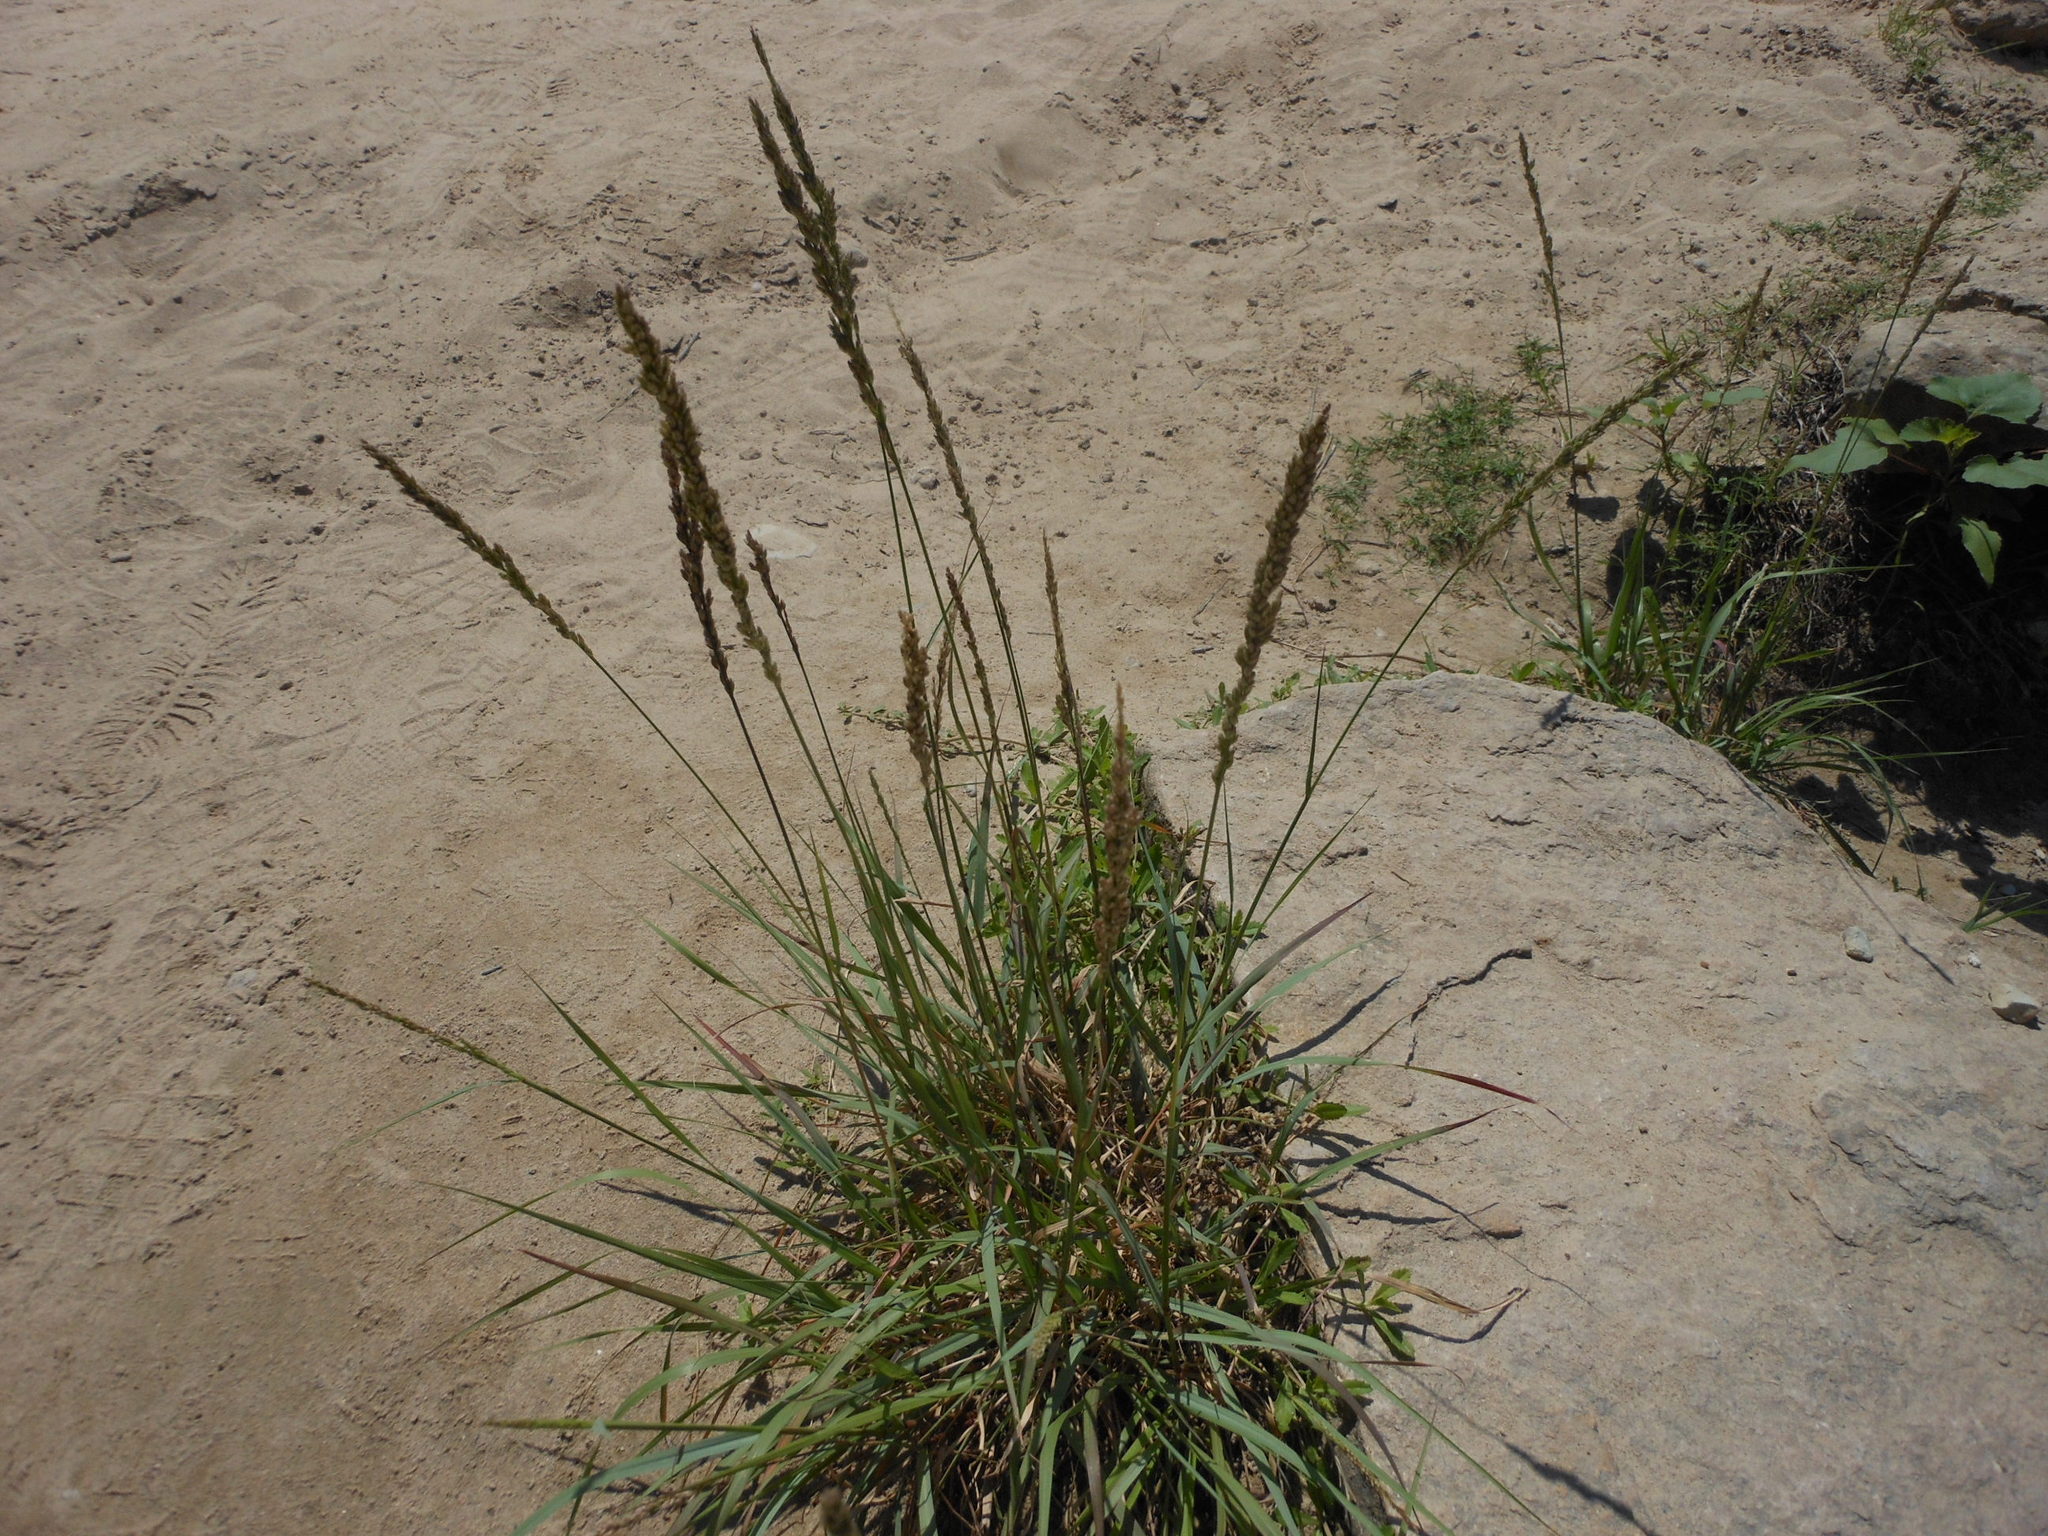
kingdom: Plantae
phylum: Tracheophyta
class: Liliopsida
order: Poales
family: Poaceae
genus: Tridens
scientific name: Tridens albescens
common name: White tridens
